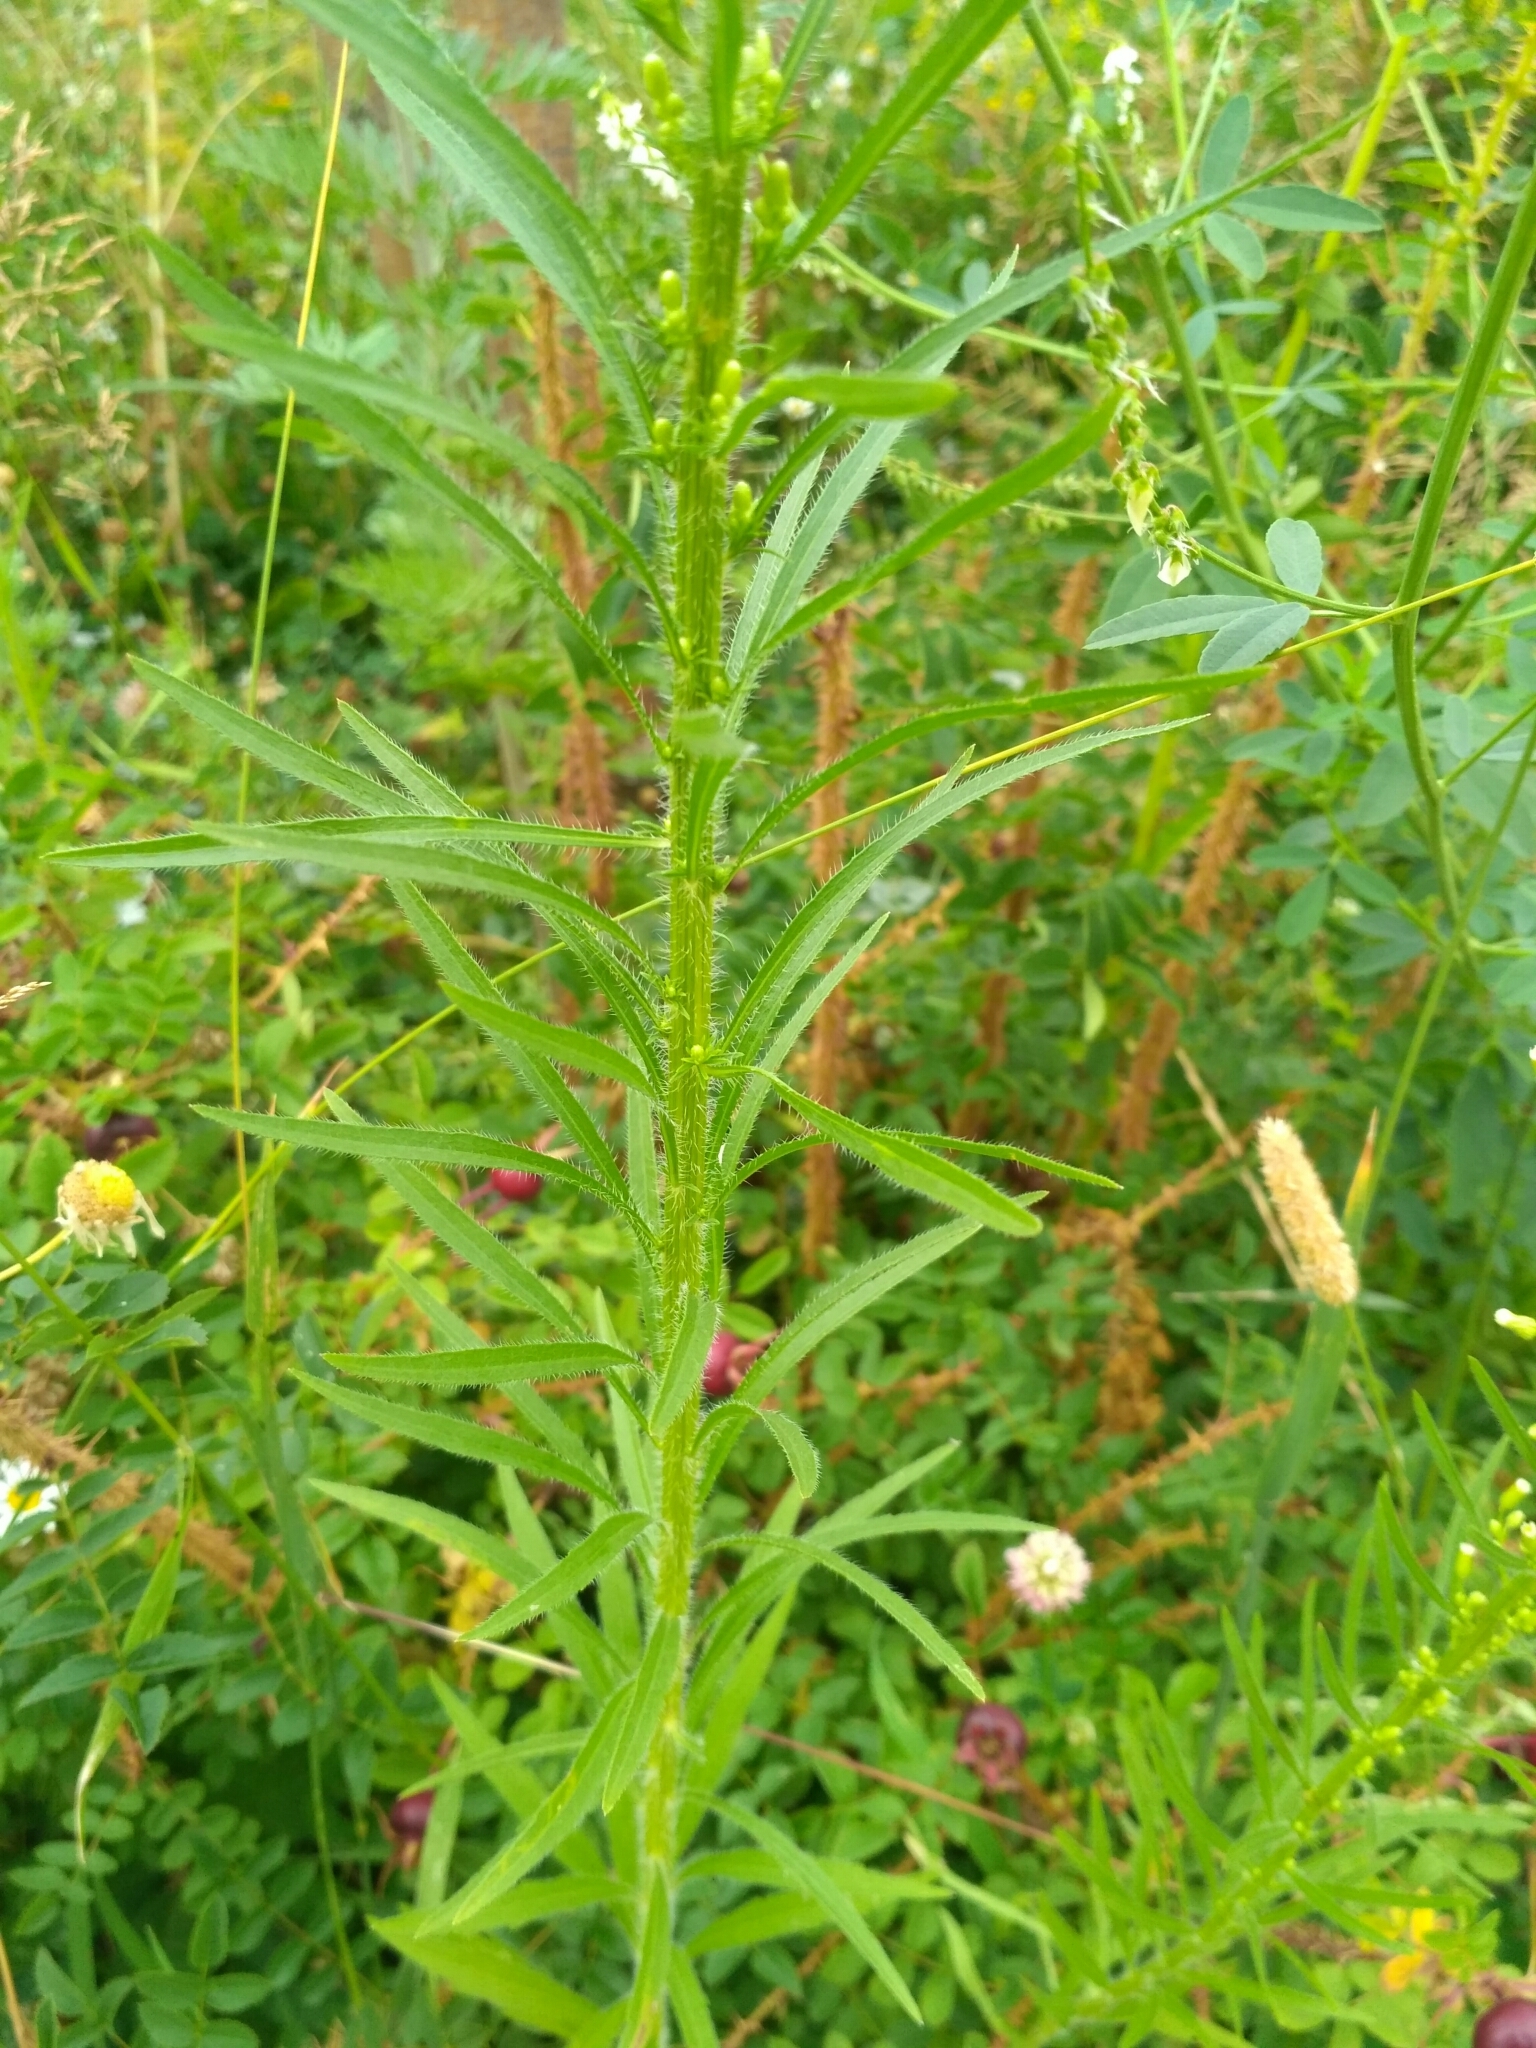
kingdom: Plantae
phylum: Tracheophyta
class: Magnoliopsida
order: Asterales
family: Asteraceae
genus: Erigeron
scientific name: Erigeron canadensis
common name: Canadian fleabane
